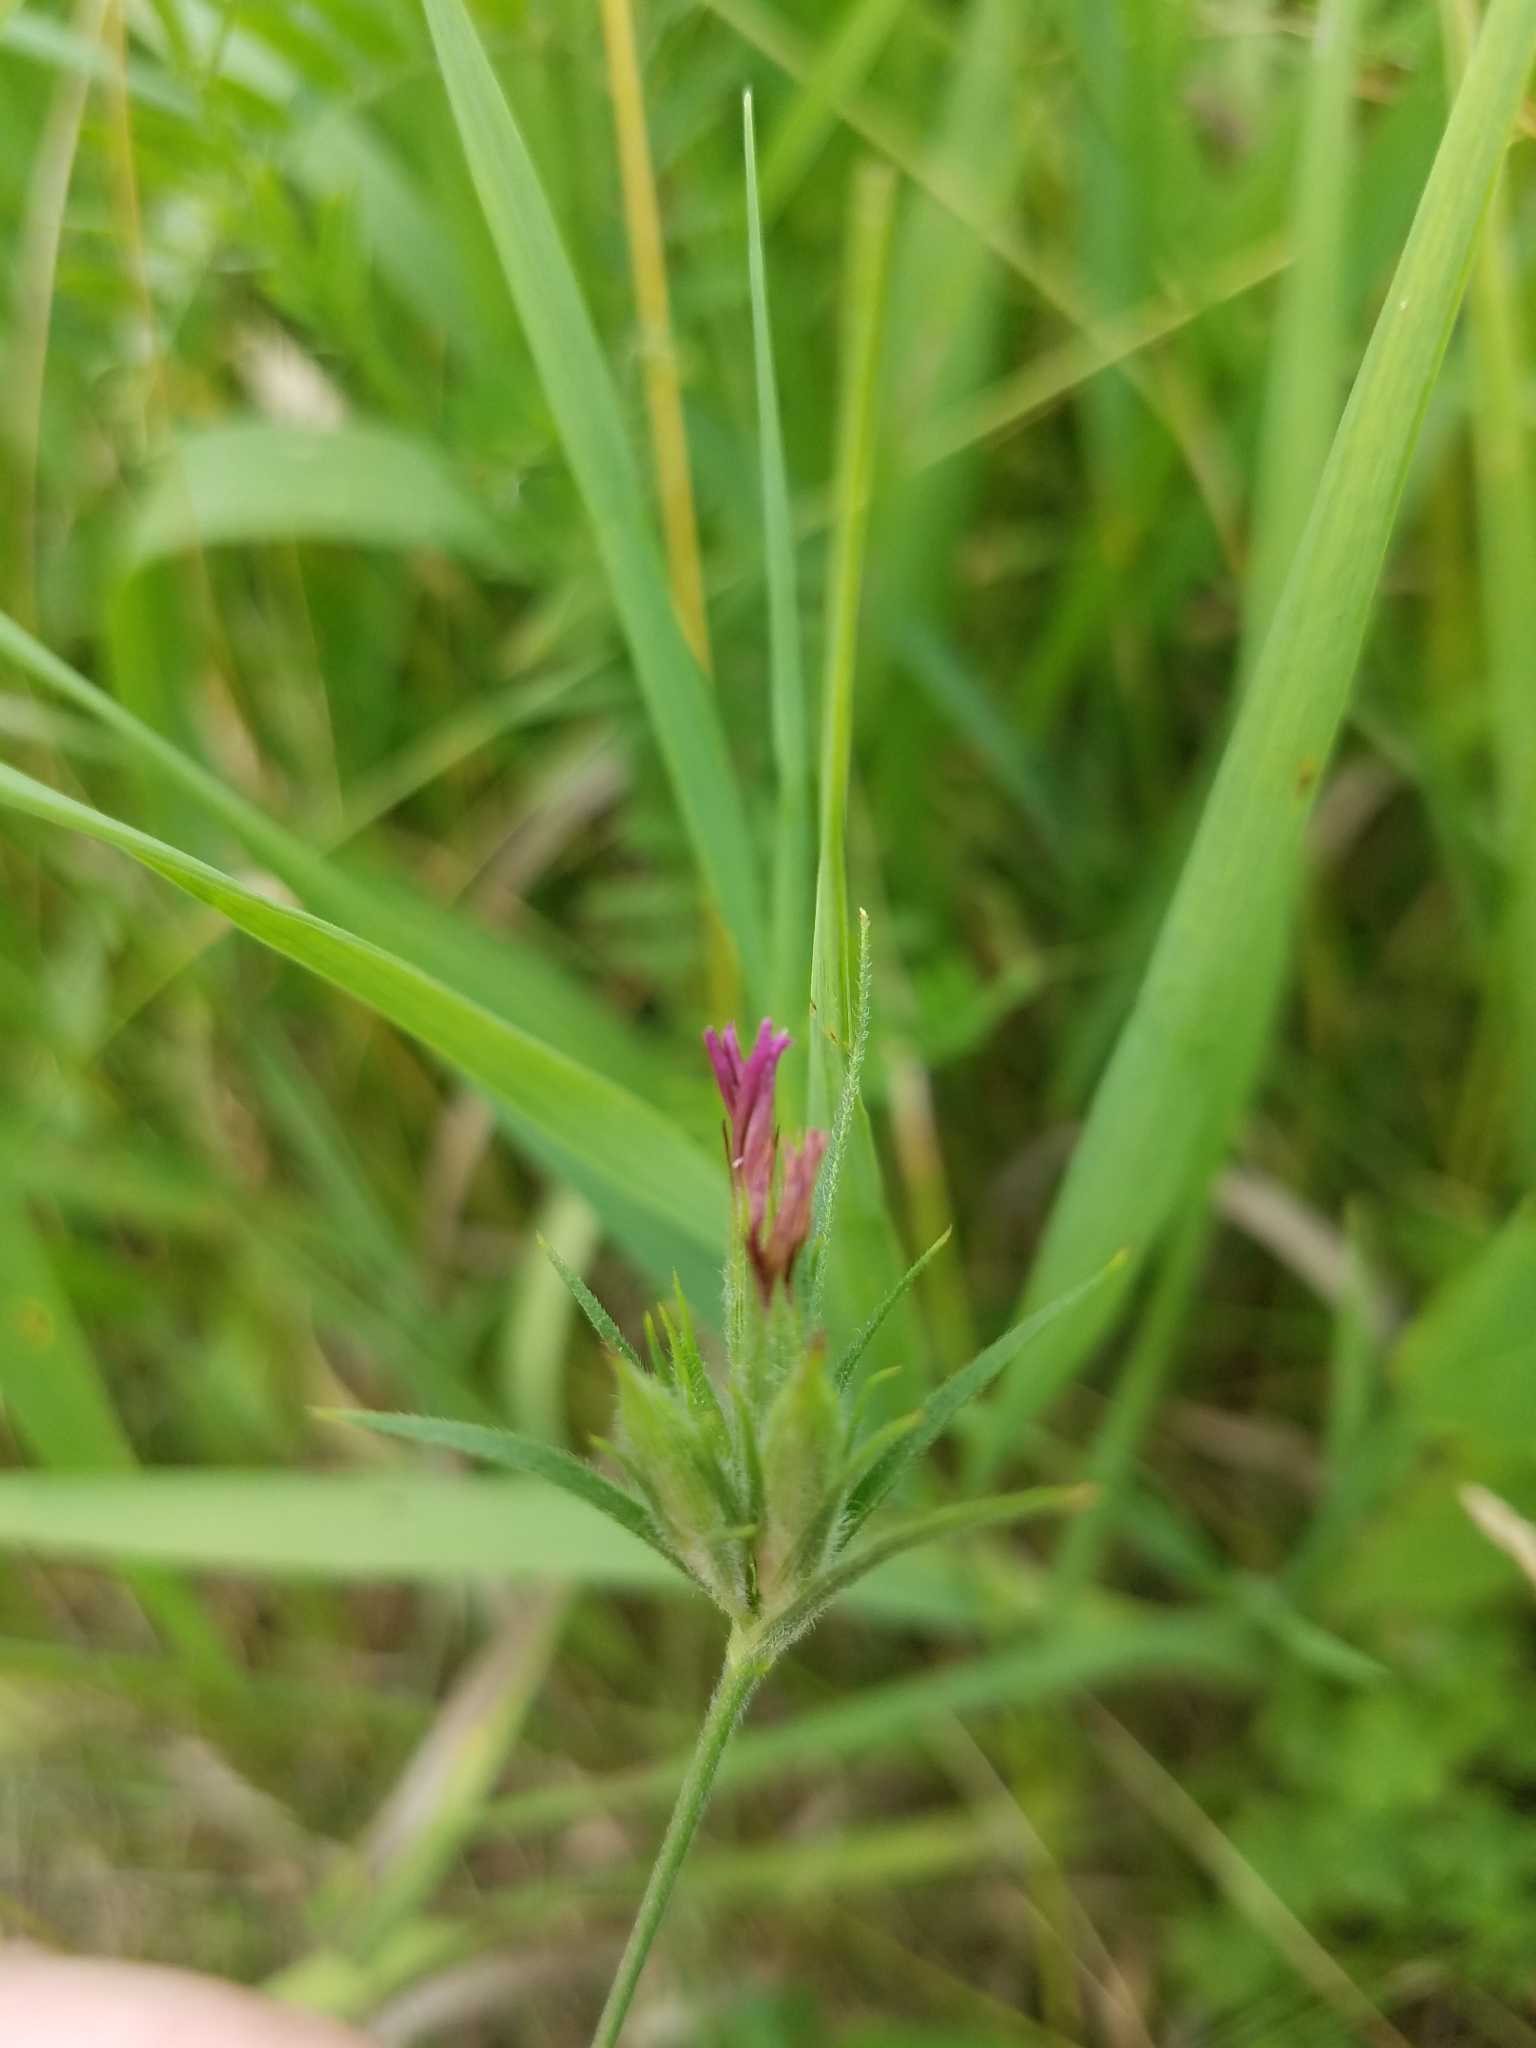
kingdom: Plantae
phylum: Tracheophyta
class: Magnoliopsida
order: Caryophyllales
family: Caryophyllaceae
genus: Dianthus
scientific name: Dianthus armeria
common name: Deptford pink
